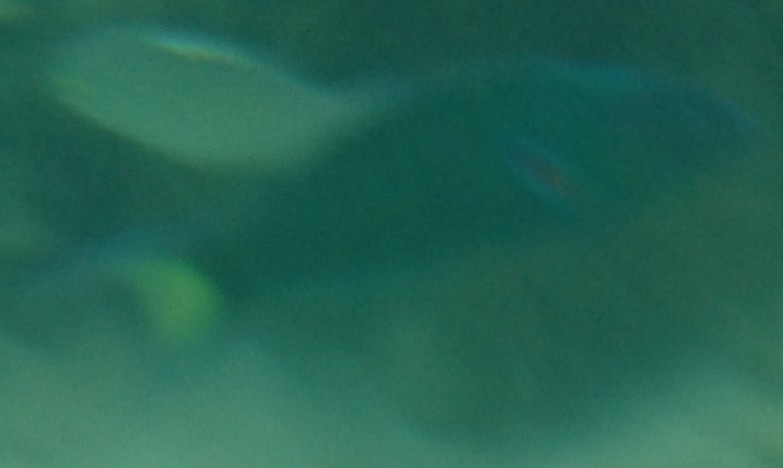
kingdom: Animalia
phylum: Chordata
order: Perciformes
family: Labridae
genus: Thalassoma
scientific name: Thalassoma lunare
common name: Blue wrasse
